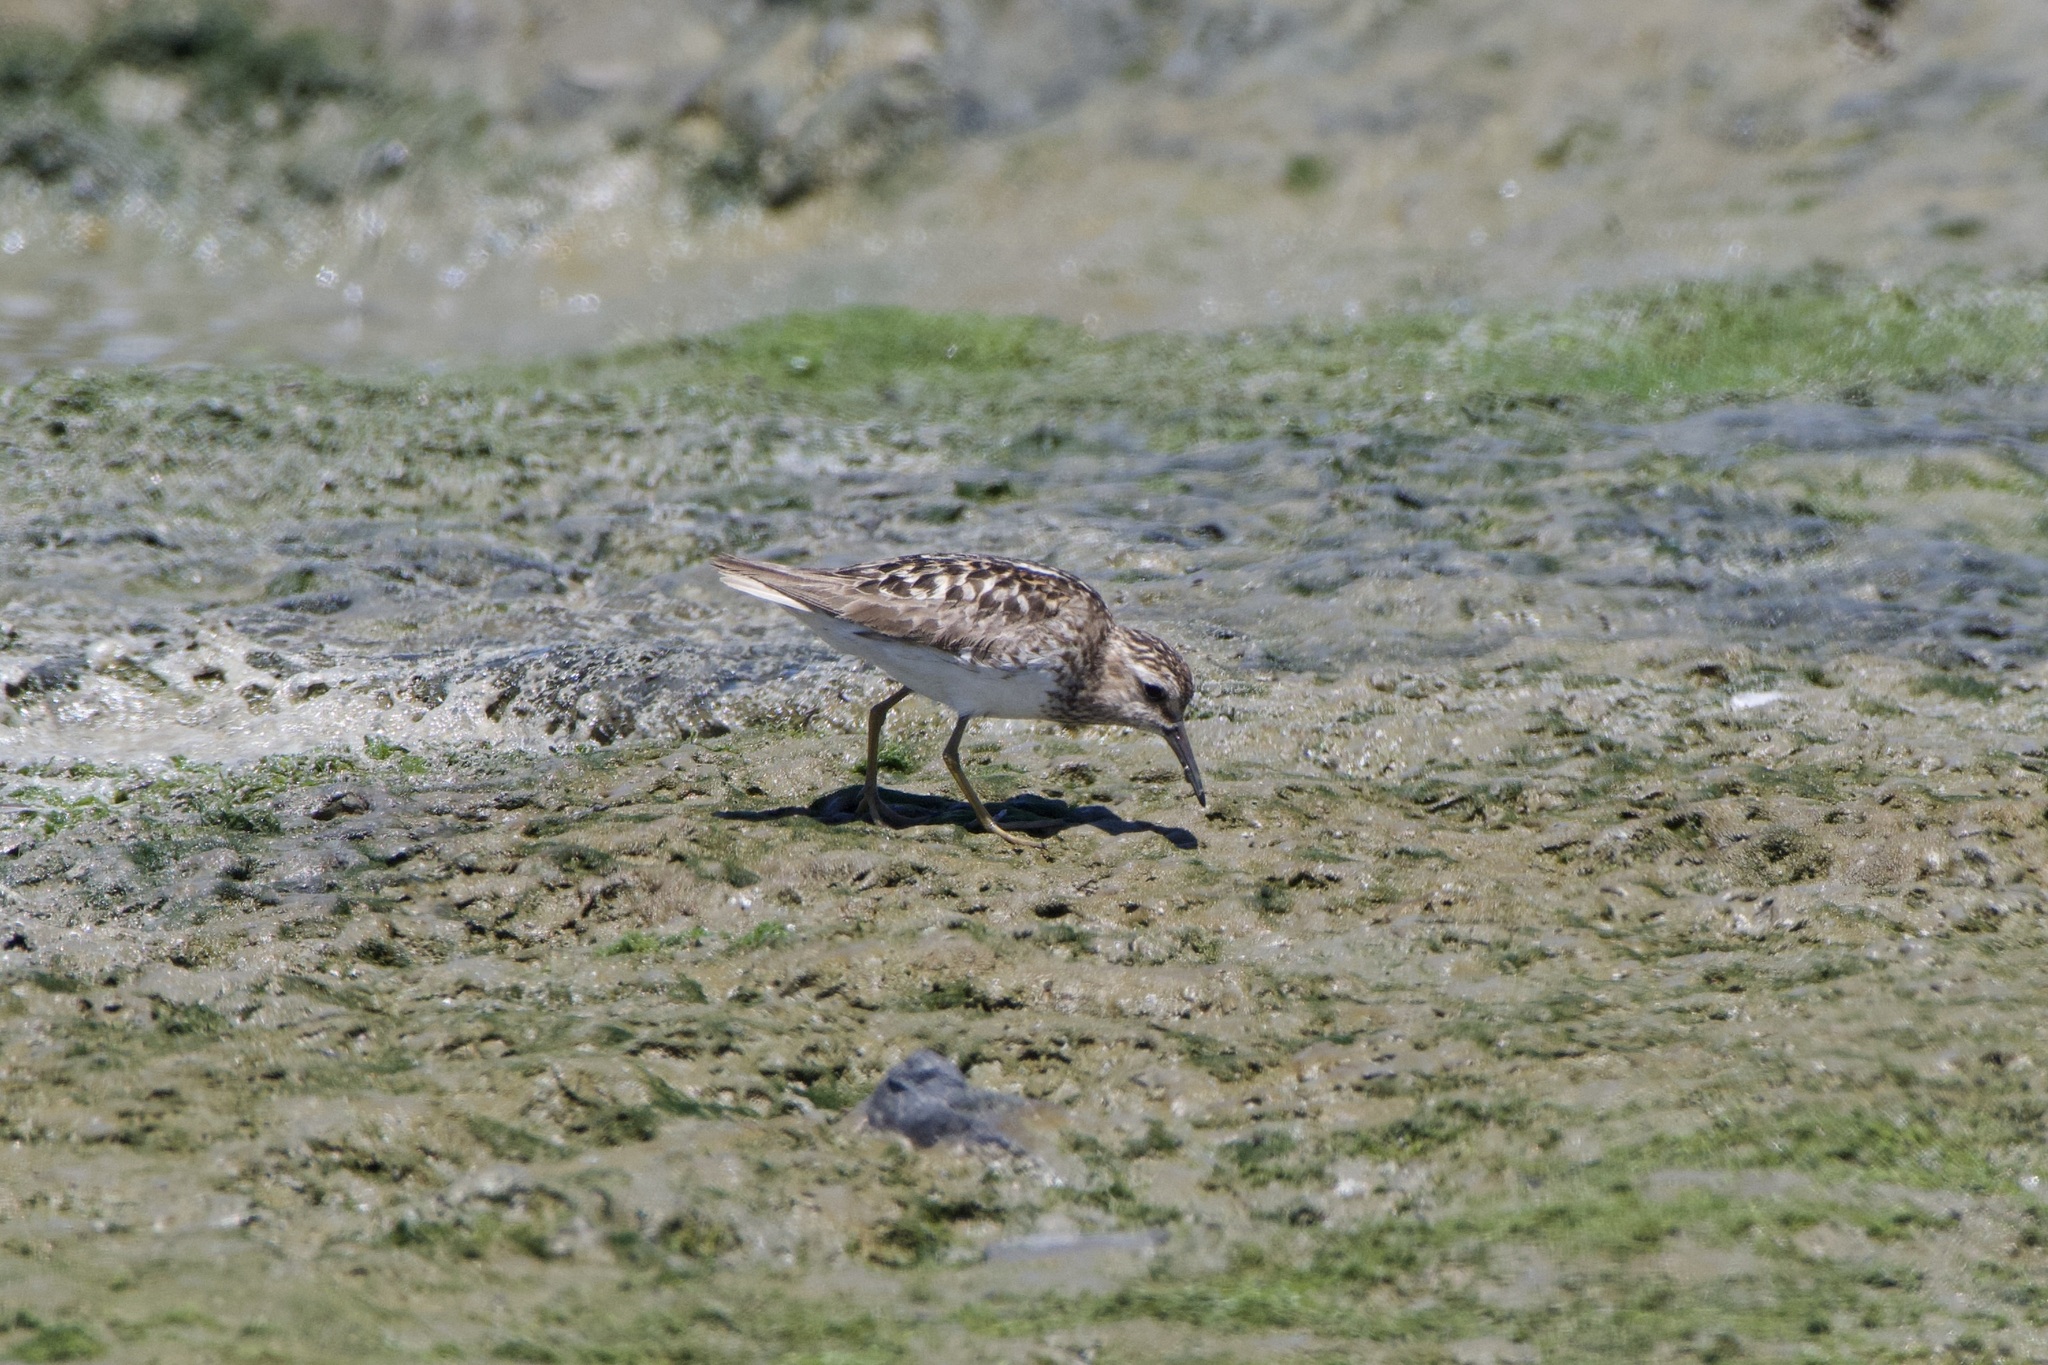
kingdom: Animalia
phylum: Chordata
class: Aves
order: Charadriiformes
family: Scolopacidae
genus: Calidris
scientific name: Calidris minutilla
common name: Least sandpiper
